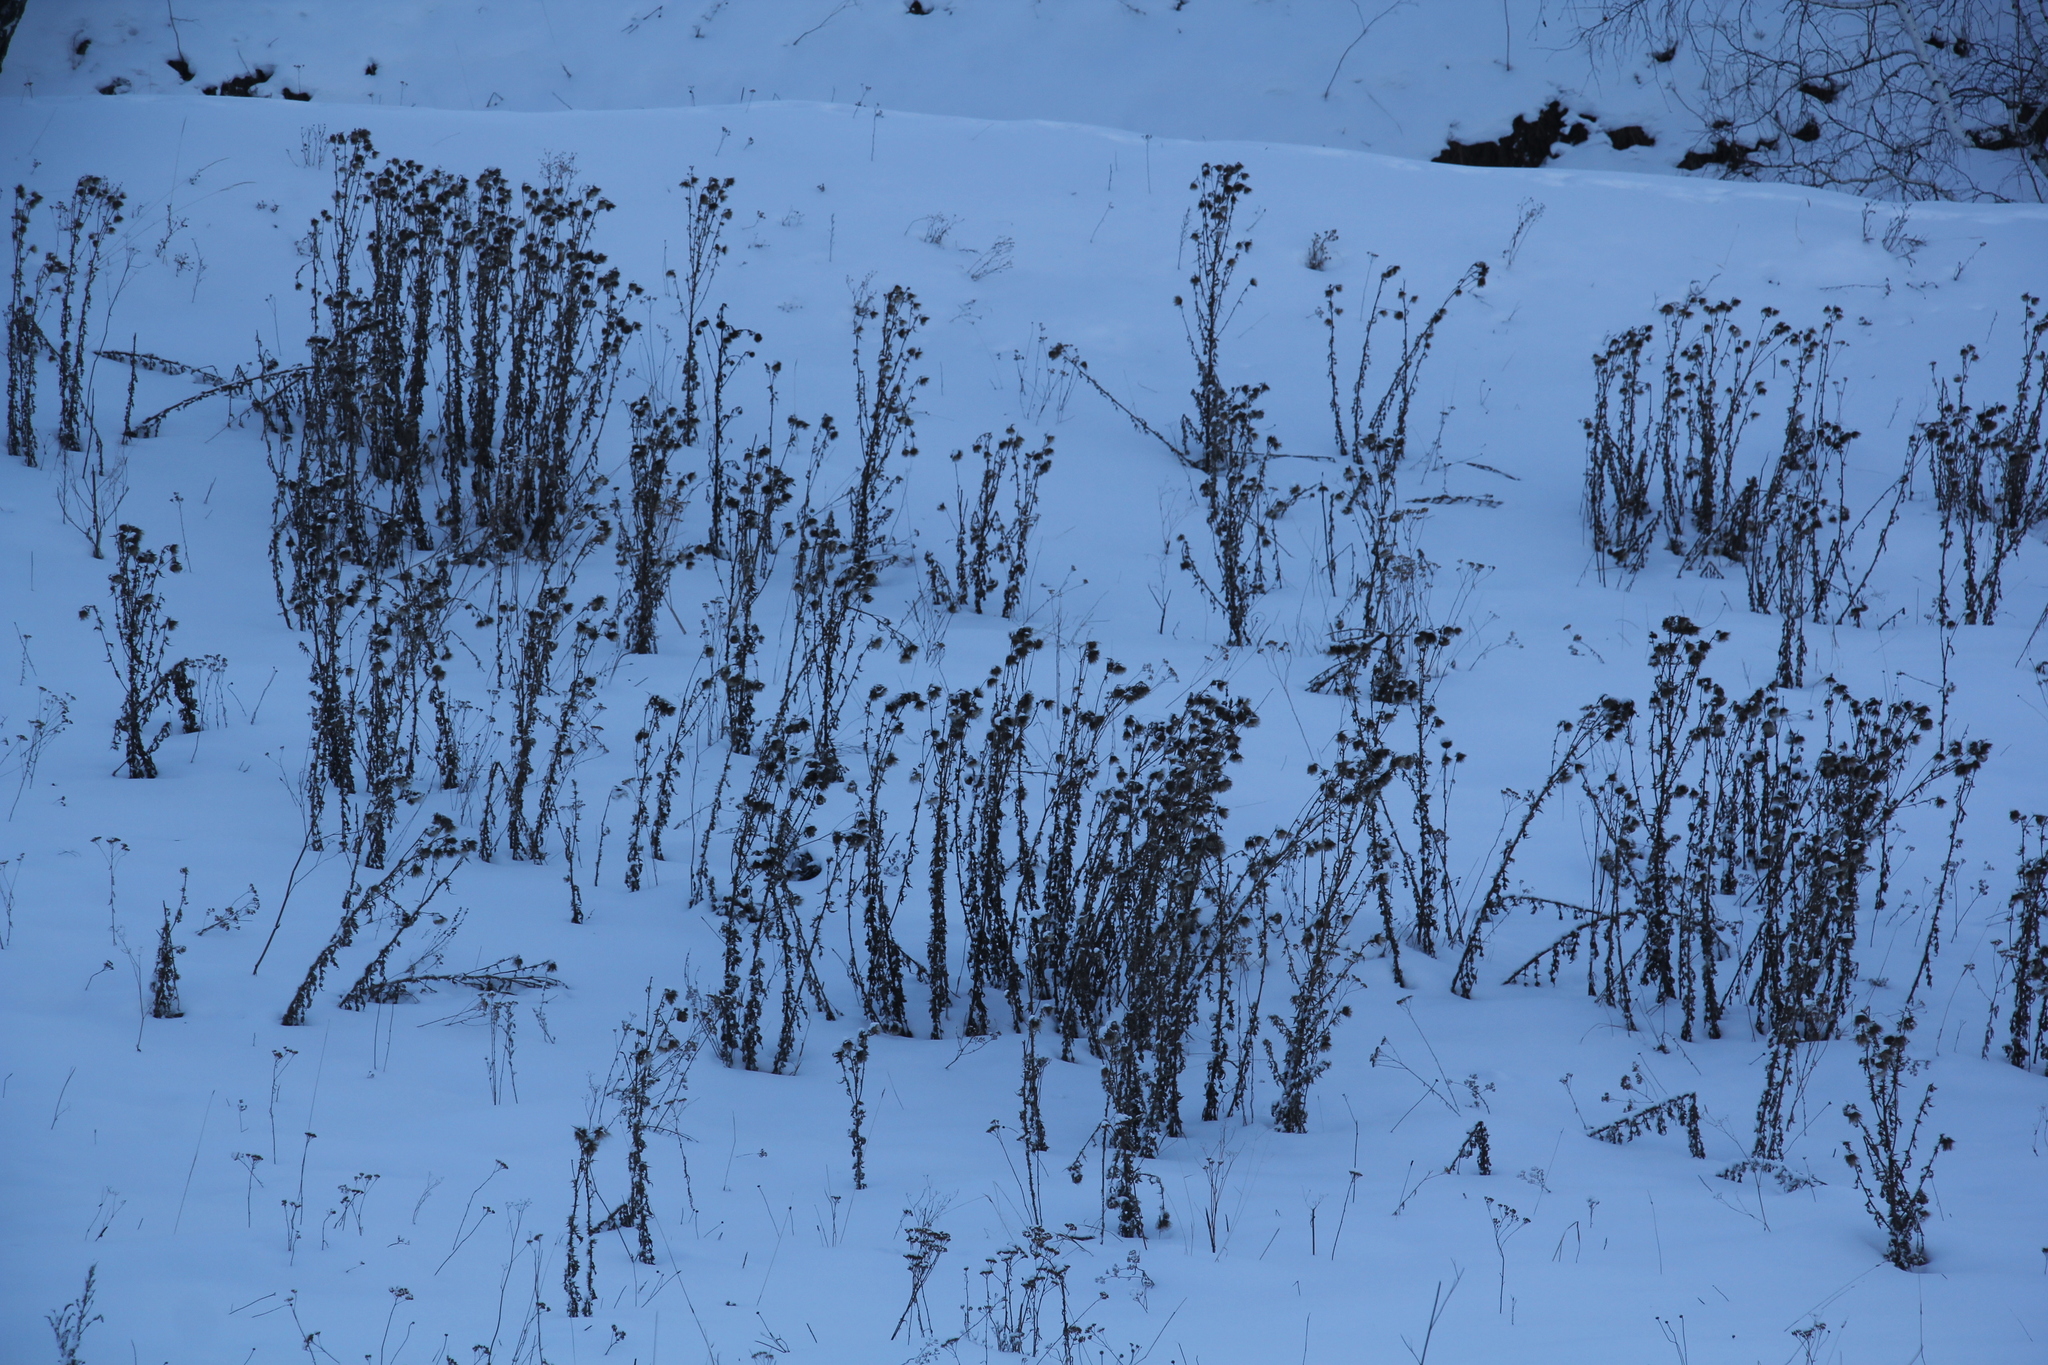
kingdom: Plantae
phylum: Tracheophyta
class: Magnoliopsida
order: Asterales
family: Asteraceae
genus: Cirsium
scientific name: Cirsium vulgare
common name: Bull thistle
